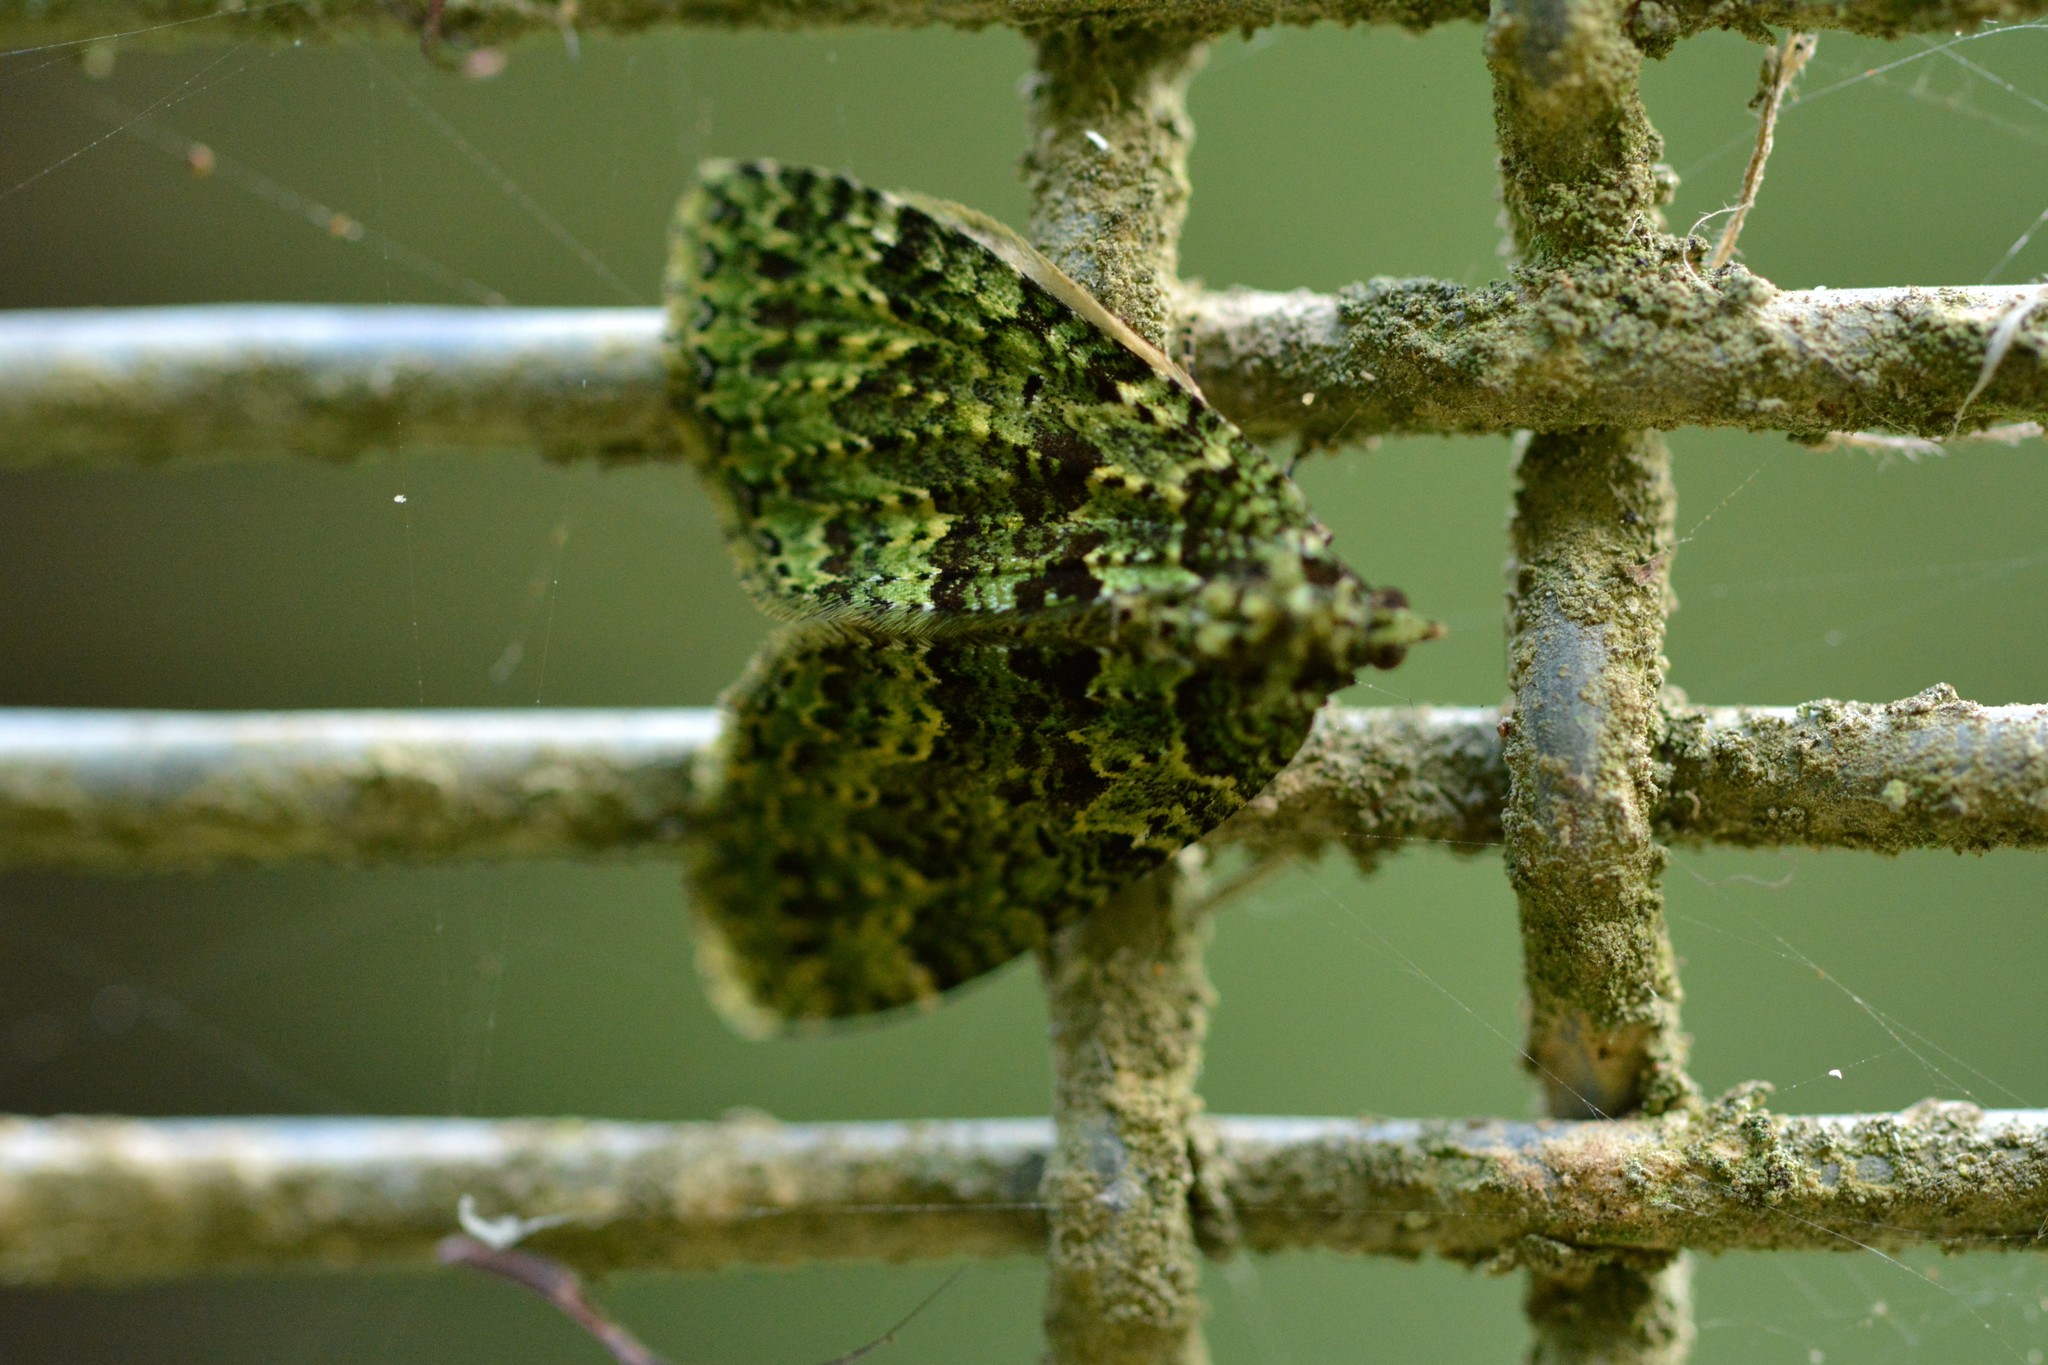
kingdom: Animalia
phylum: Arthropoda
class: Insecta
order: Lepidoptera
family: Geometridae
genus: Austrocidaria
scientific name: Austrocidaria callichlora
